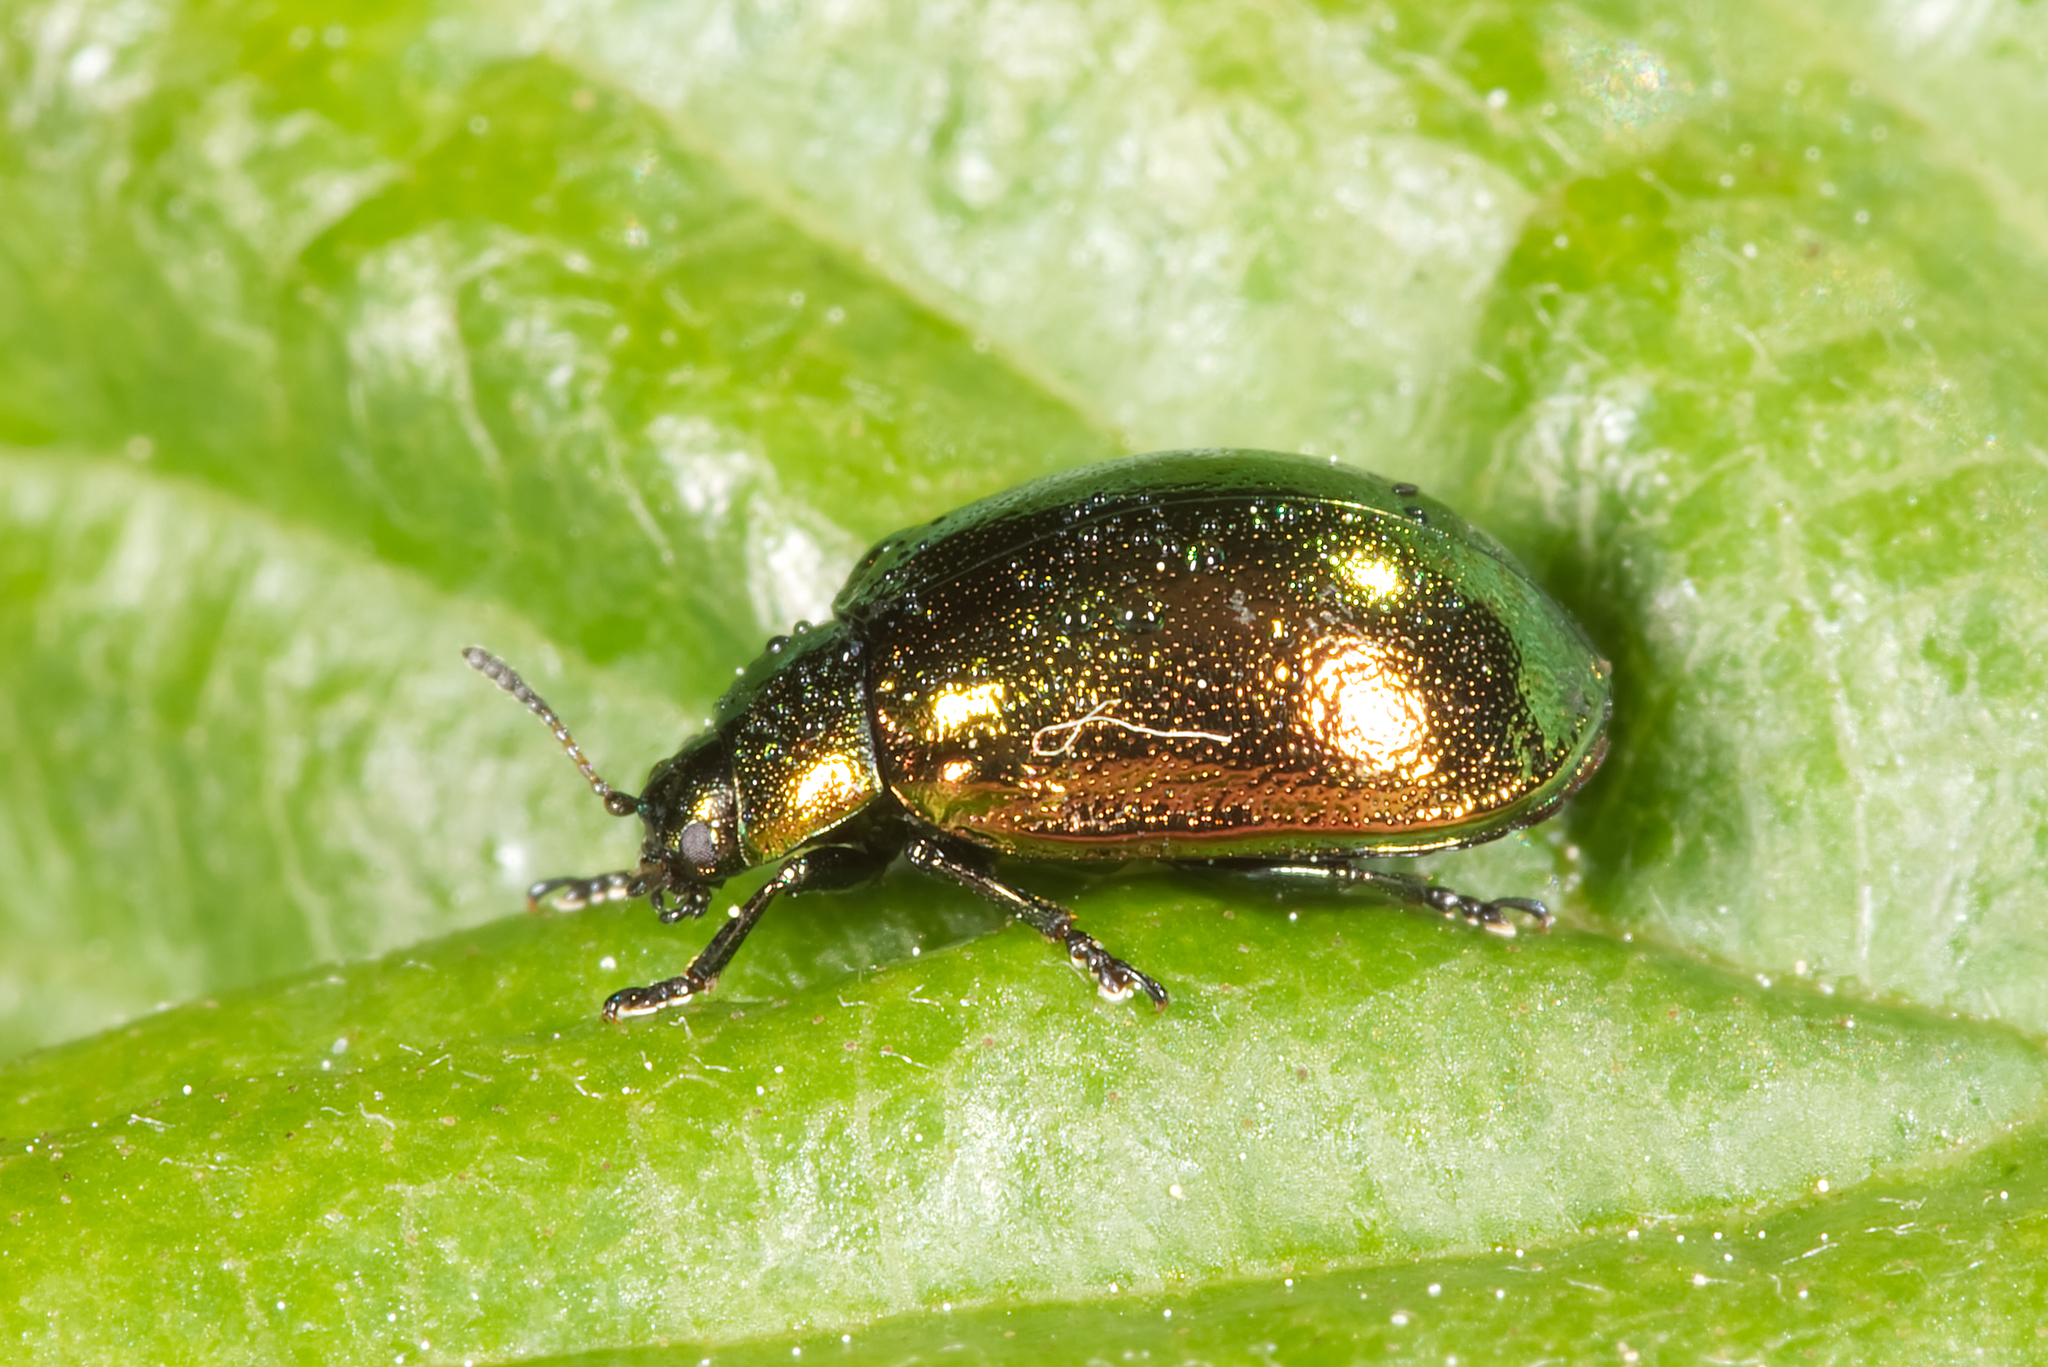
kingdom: Animalia
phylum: Arthropoda
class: Insecta
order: Coleoptera
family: Chrysomelidae
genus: Plagiosterna
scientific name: Plagiosterna aenea
